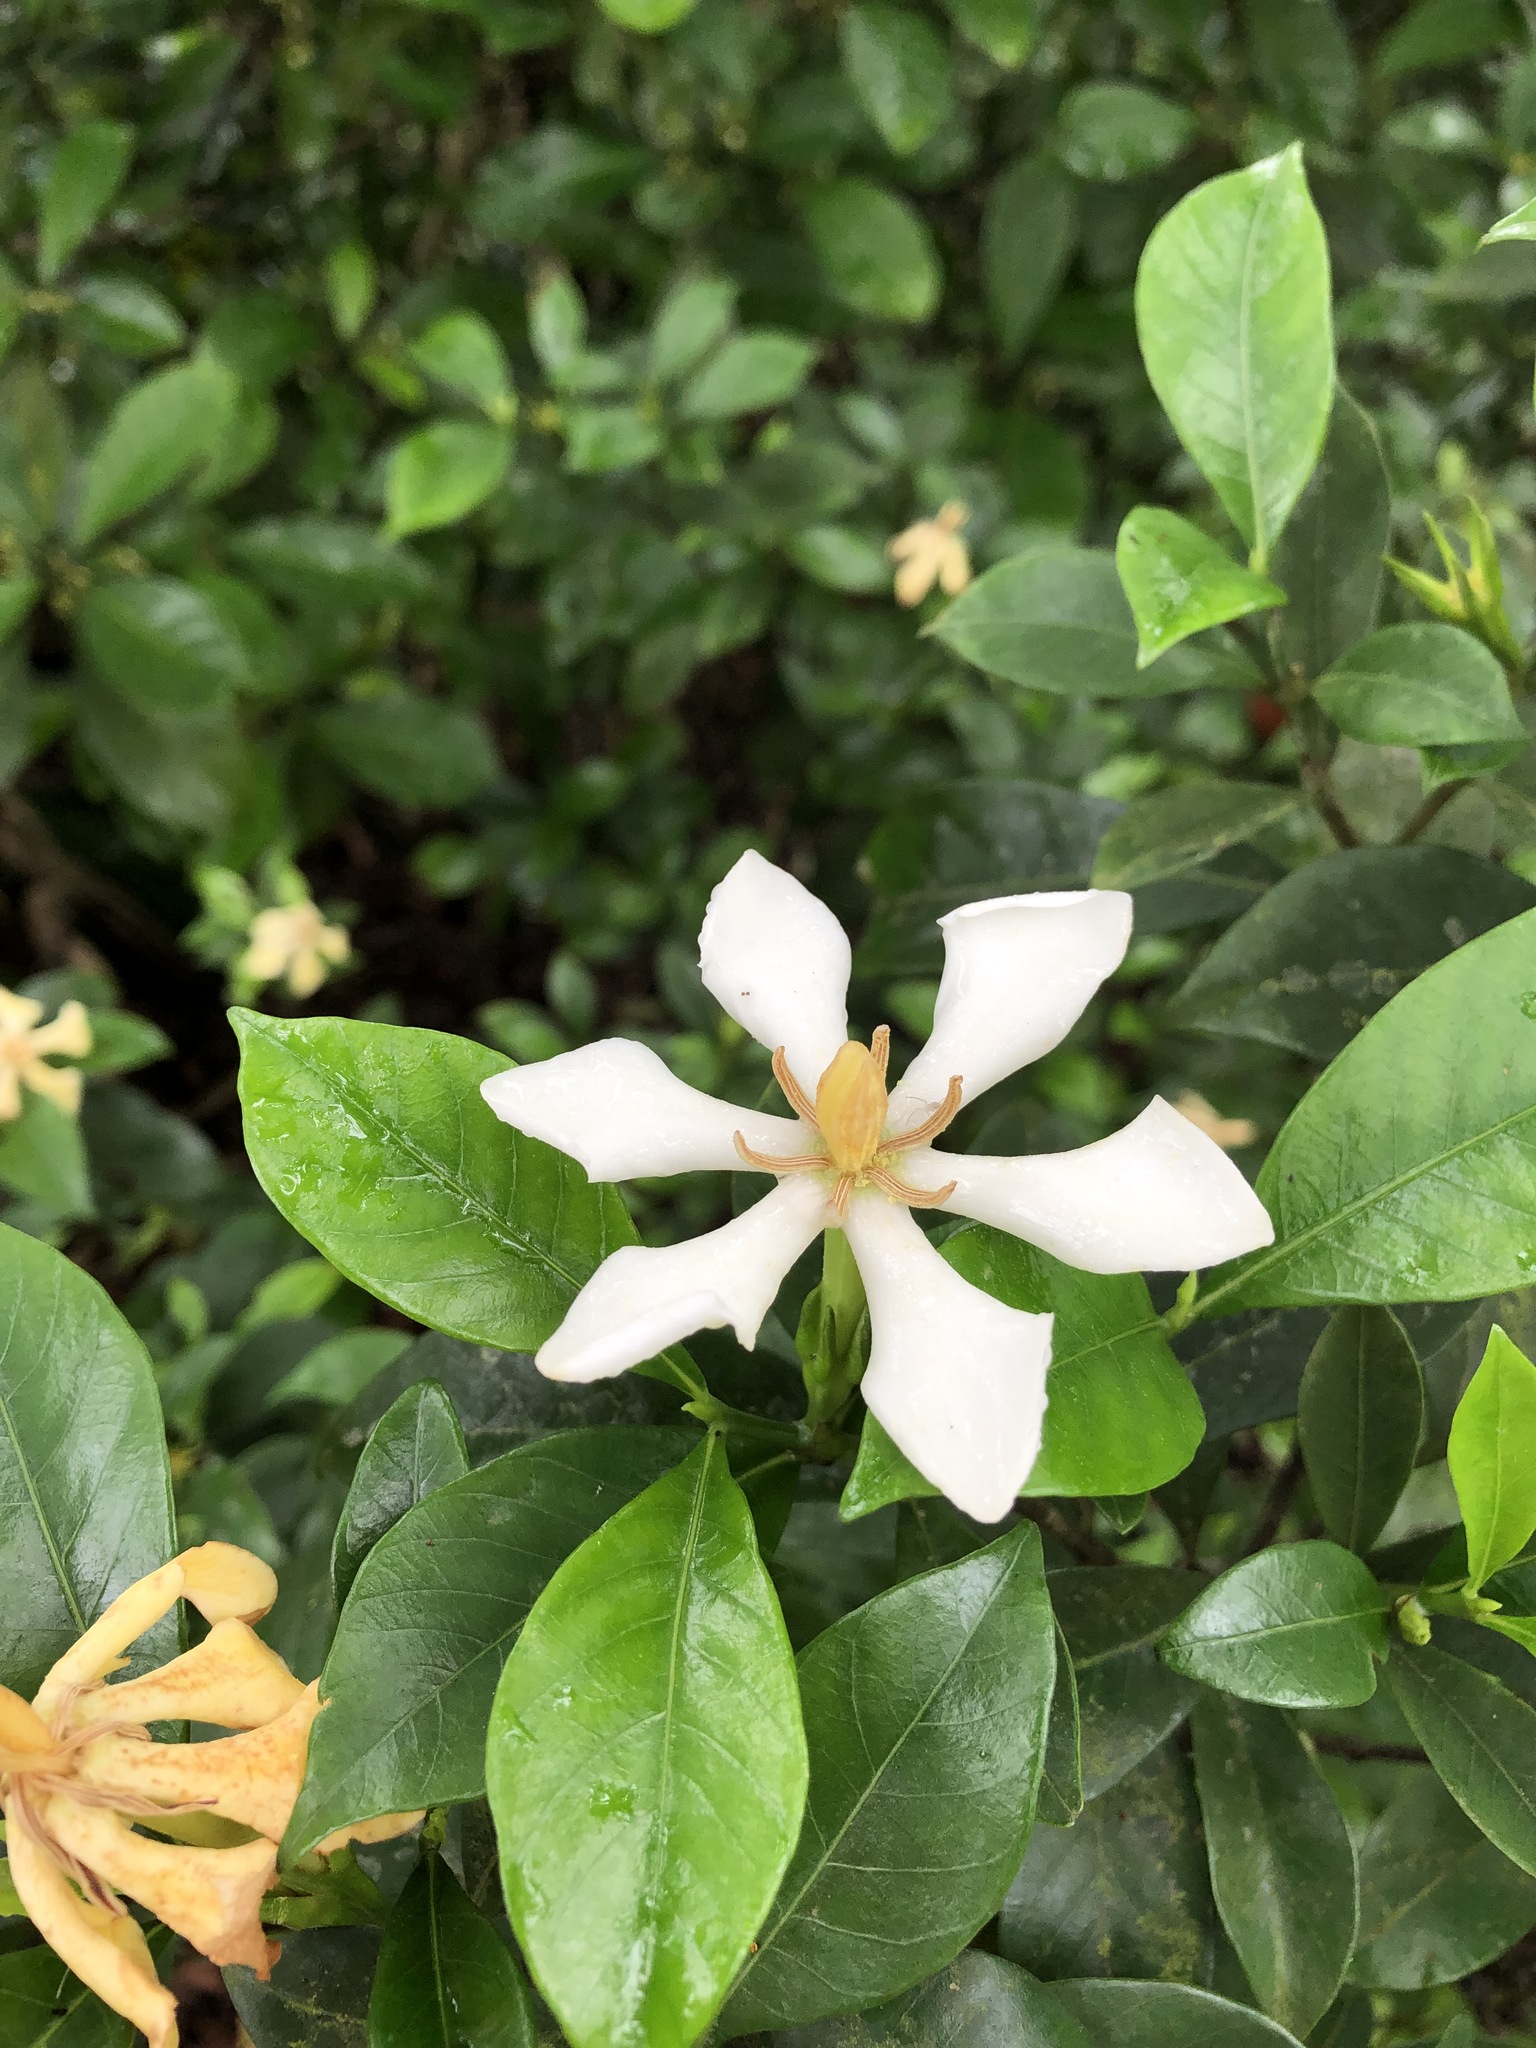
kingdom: Plantae
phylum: Tracheophyta
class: Magnoliopsida
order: Gentianales
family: Rubiaceae
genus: Gardenia
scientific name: Gardenia jasminoides
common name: Cape-jasmine
